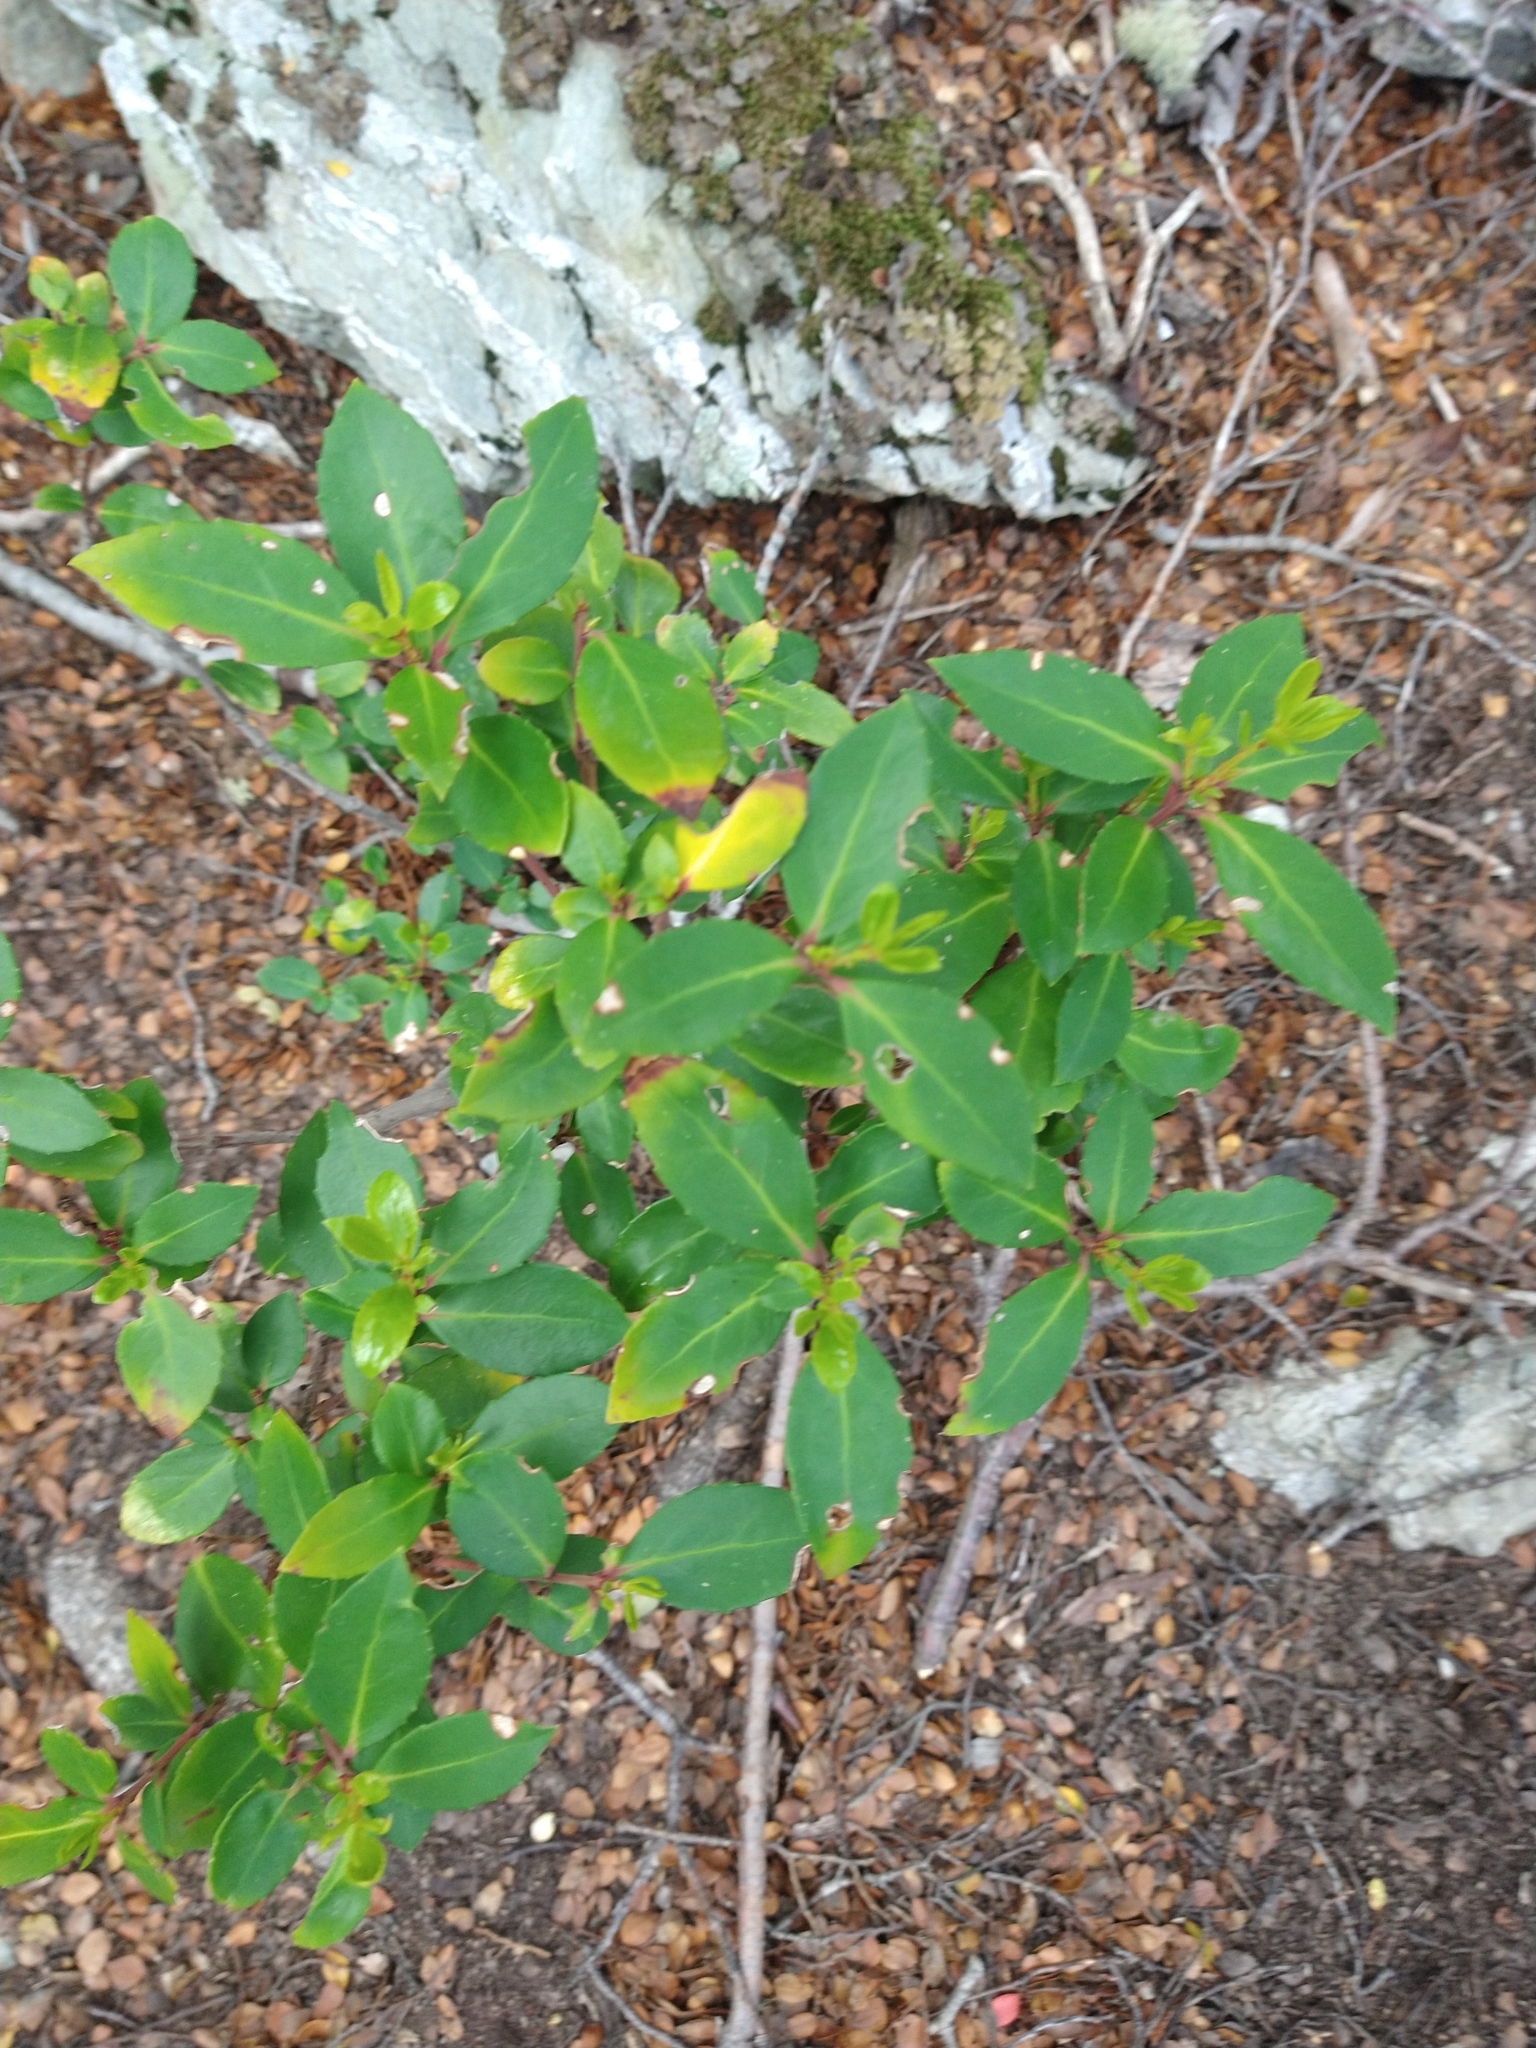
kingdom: Plantae
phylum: Tracheophyta
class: Magnoliopsida
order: Celastrales
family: Celastraceae
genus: Maytenus
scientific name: Maytenus magellanica
